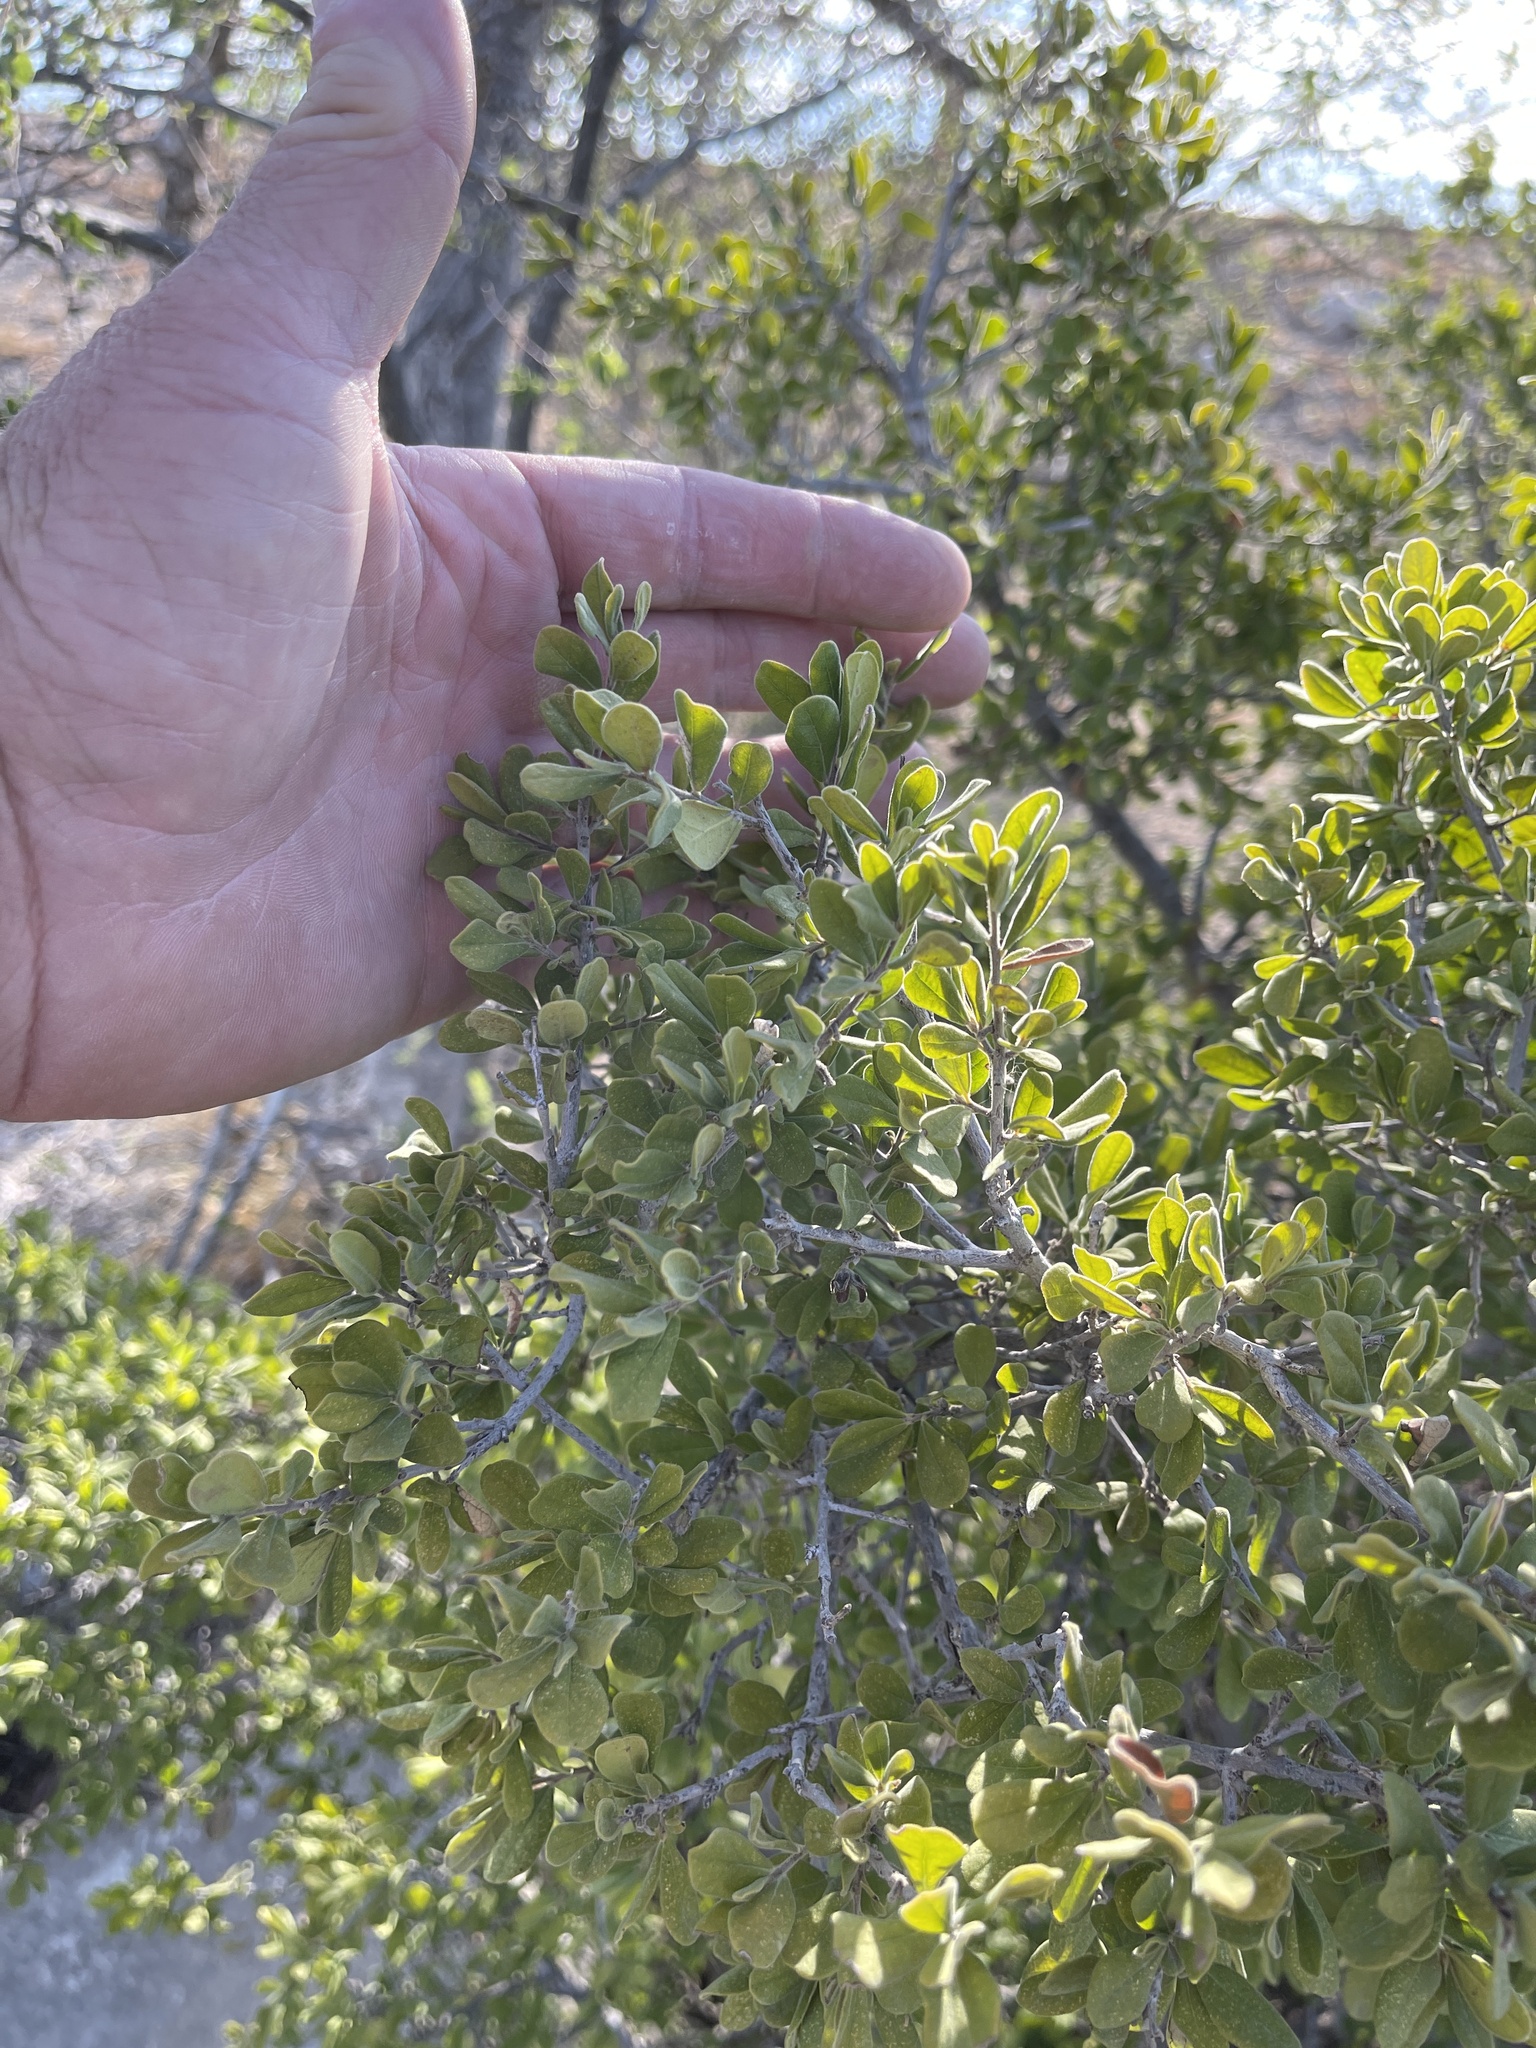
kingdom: Plantae
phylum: Tracheophyta
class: Magnoliopsida
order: Ericales
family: Ebenaceae
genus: Diospyros
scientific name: Diospyros texana
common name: Texas persimmon
